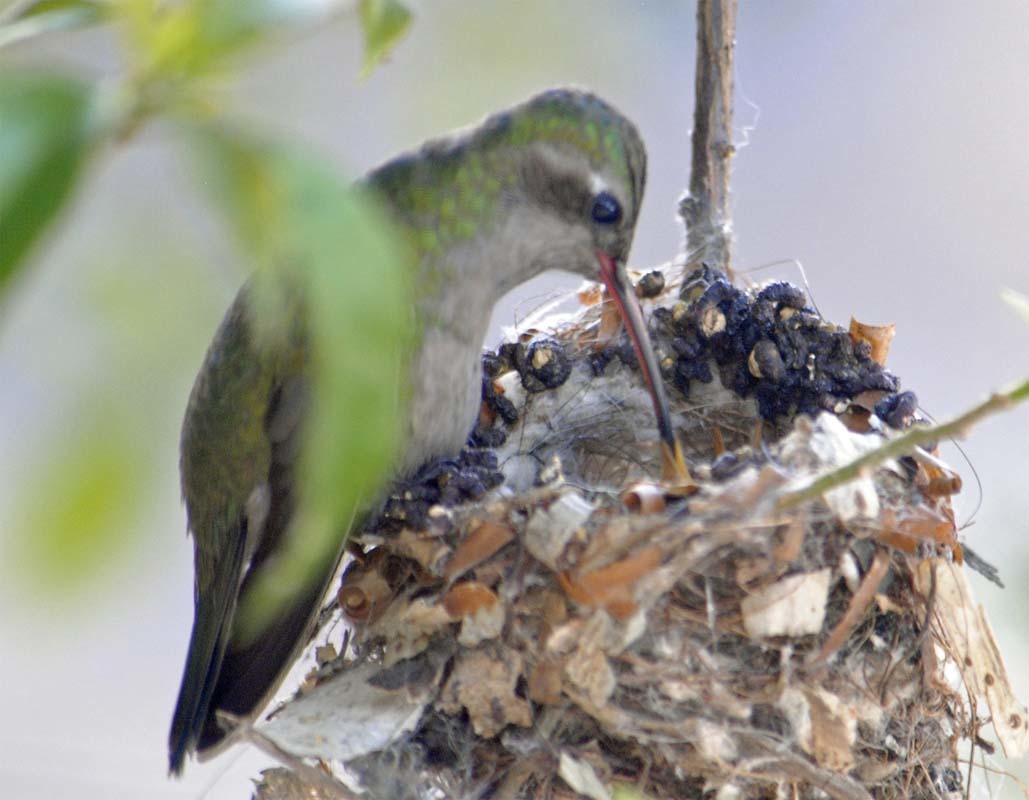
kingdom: Animalia
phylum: Chordata
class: Aves
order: Apodiformes
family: Trochilidae
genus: Cynanthus
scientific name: Cynanthus latirostris
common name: Broad-billed hummingbird
